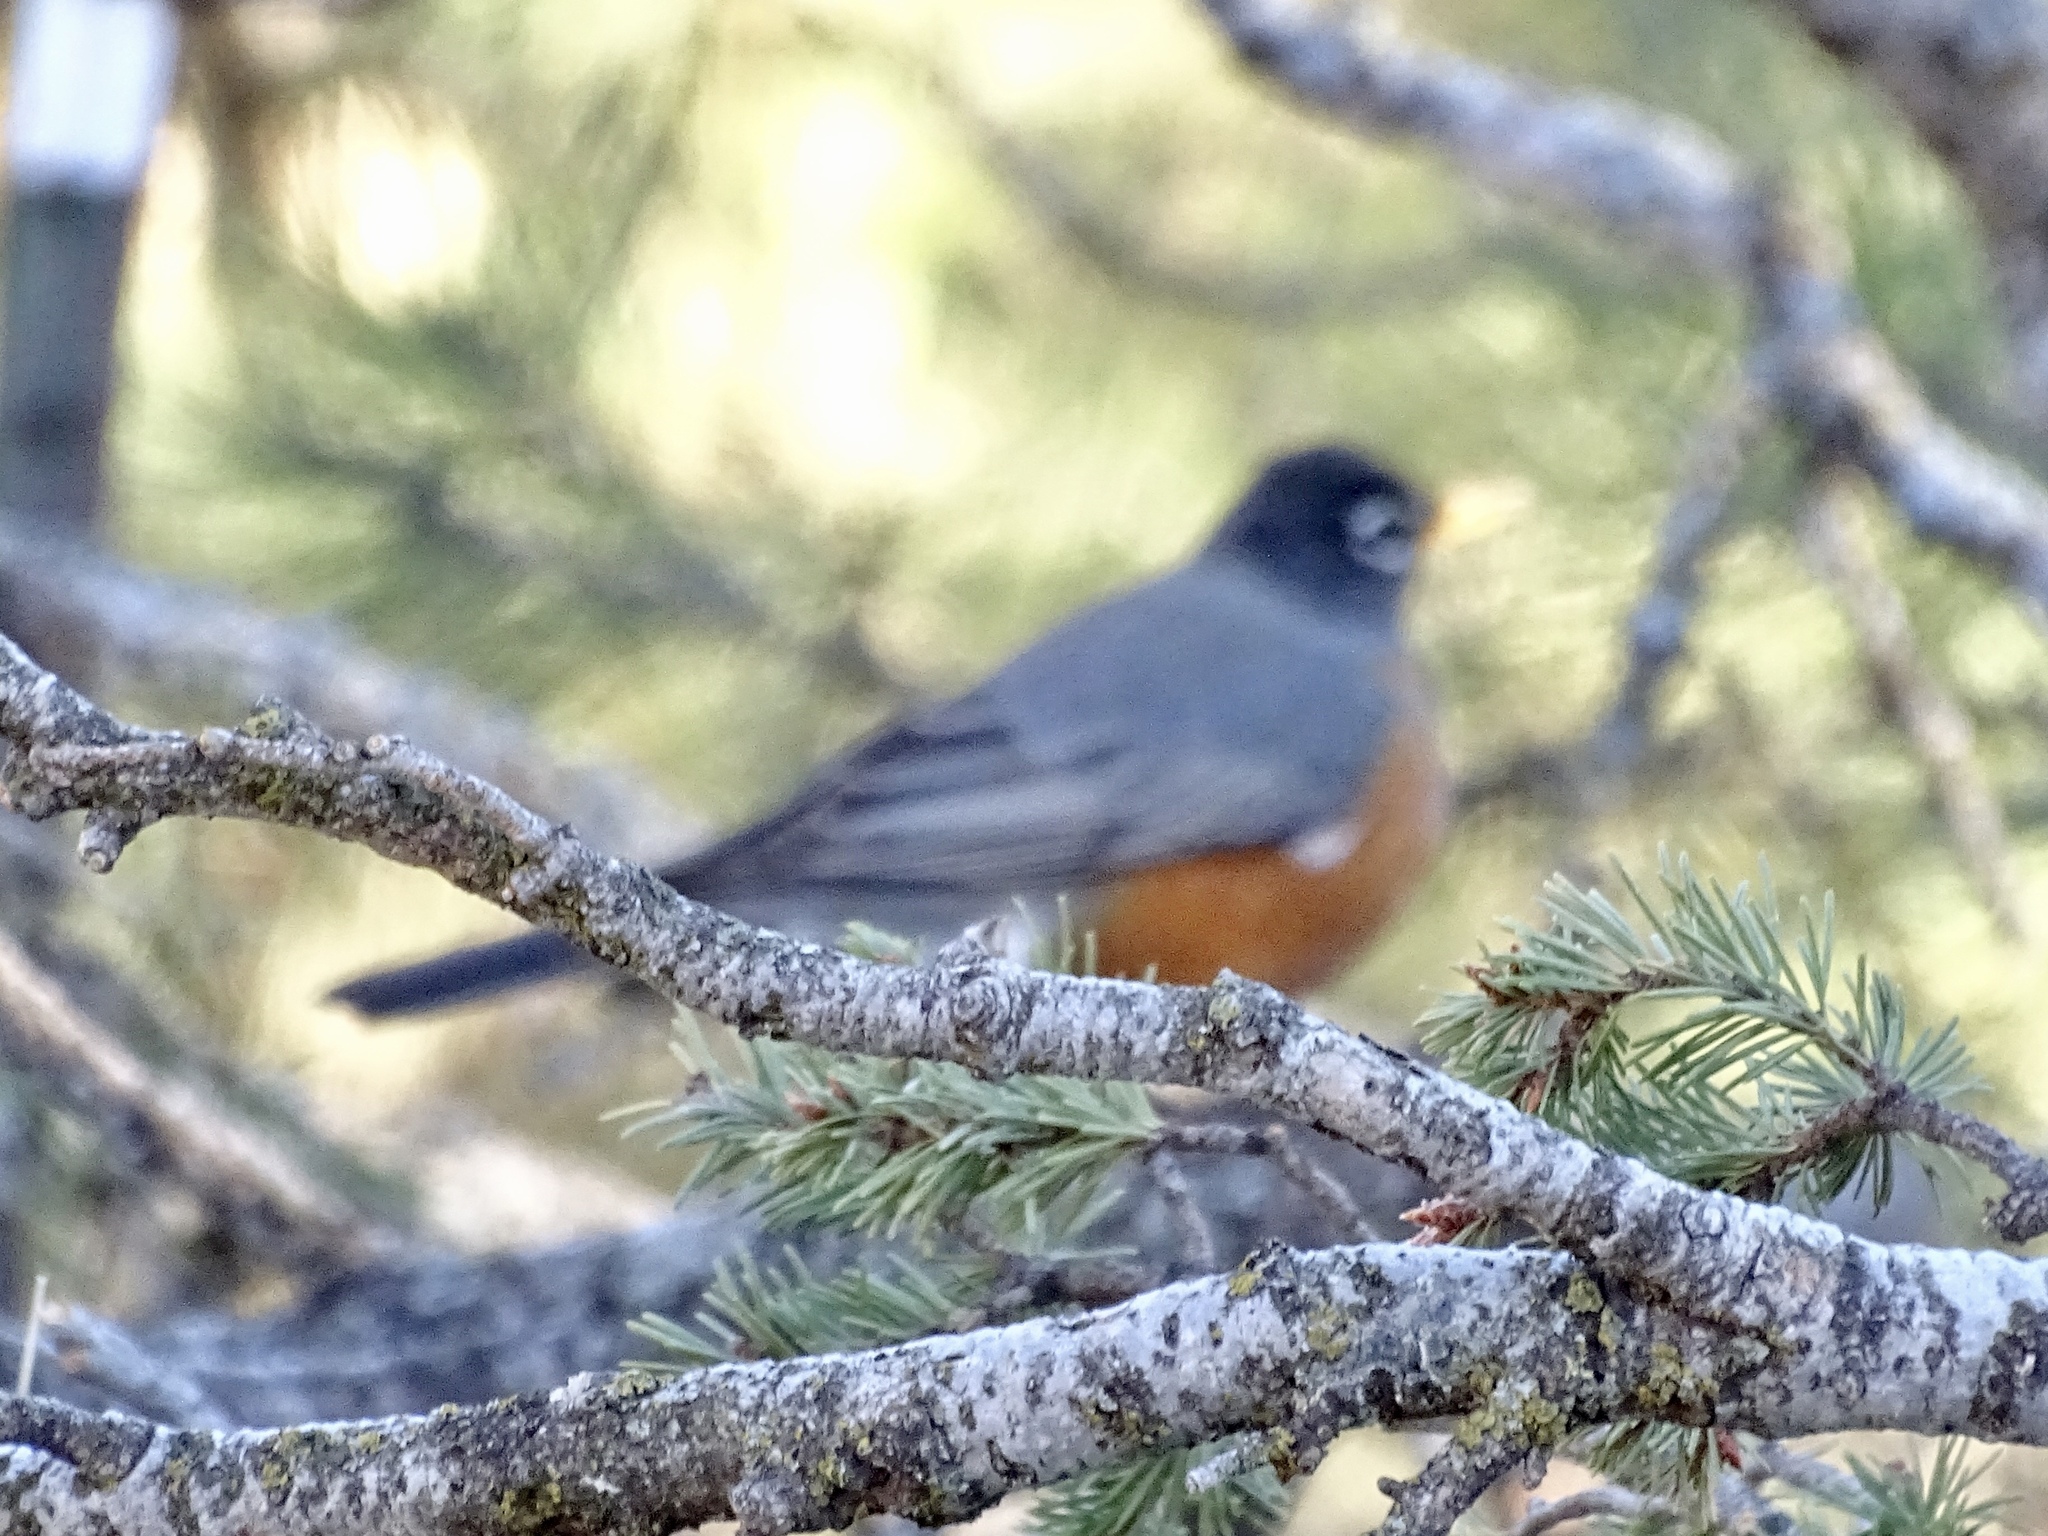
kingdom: Animalia
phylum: Chordata
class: Aves
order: Passeriformes
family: Turdidae
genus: Turdus
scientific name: Turdus migratorius
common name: American robin
